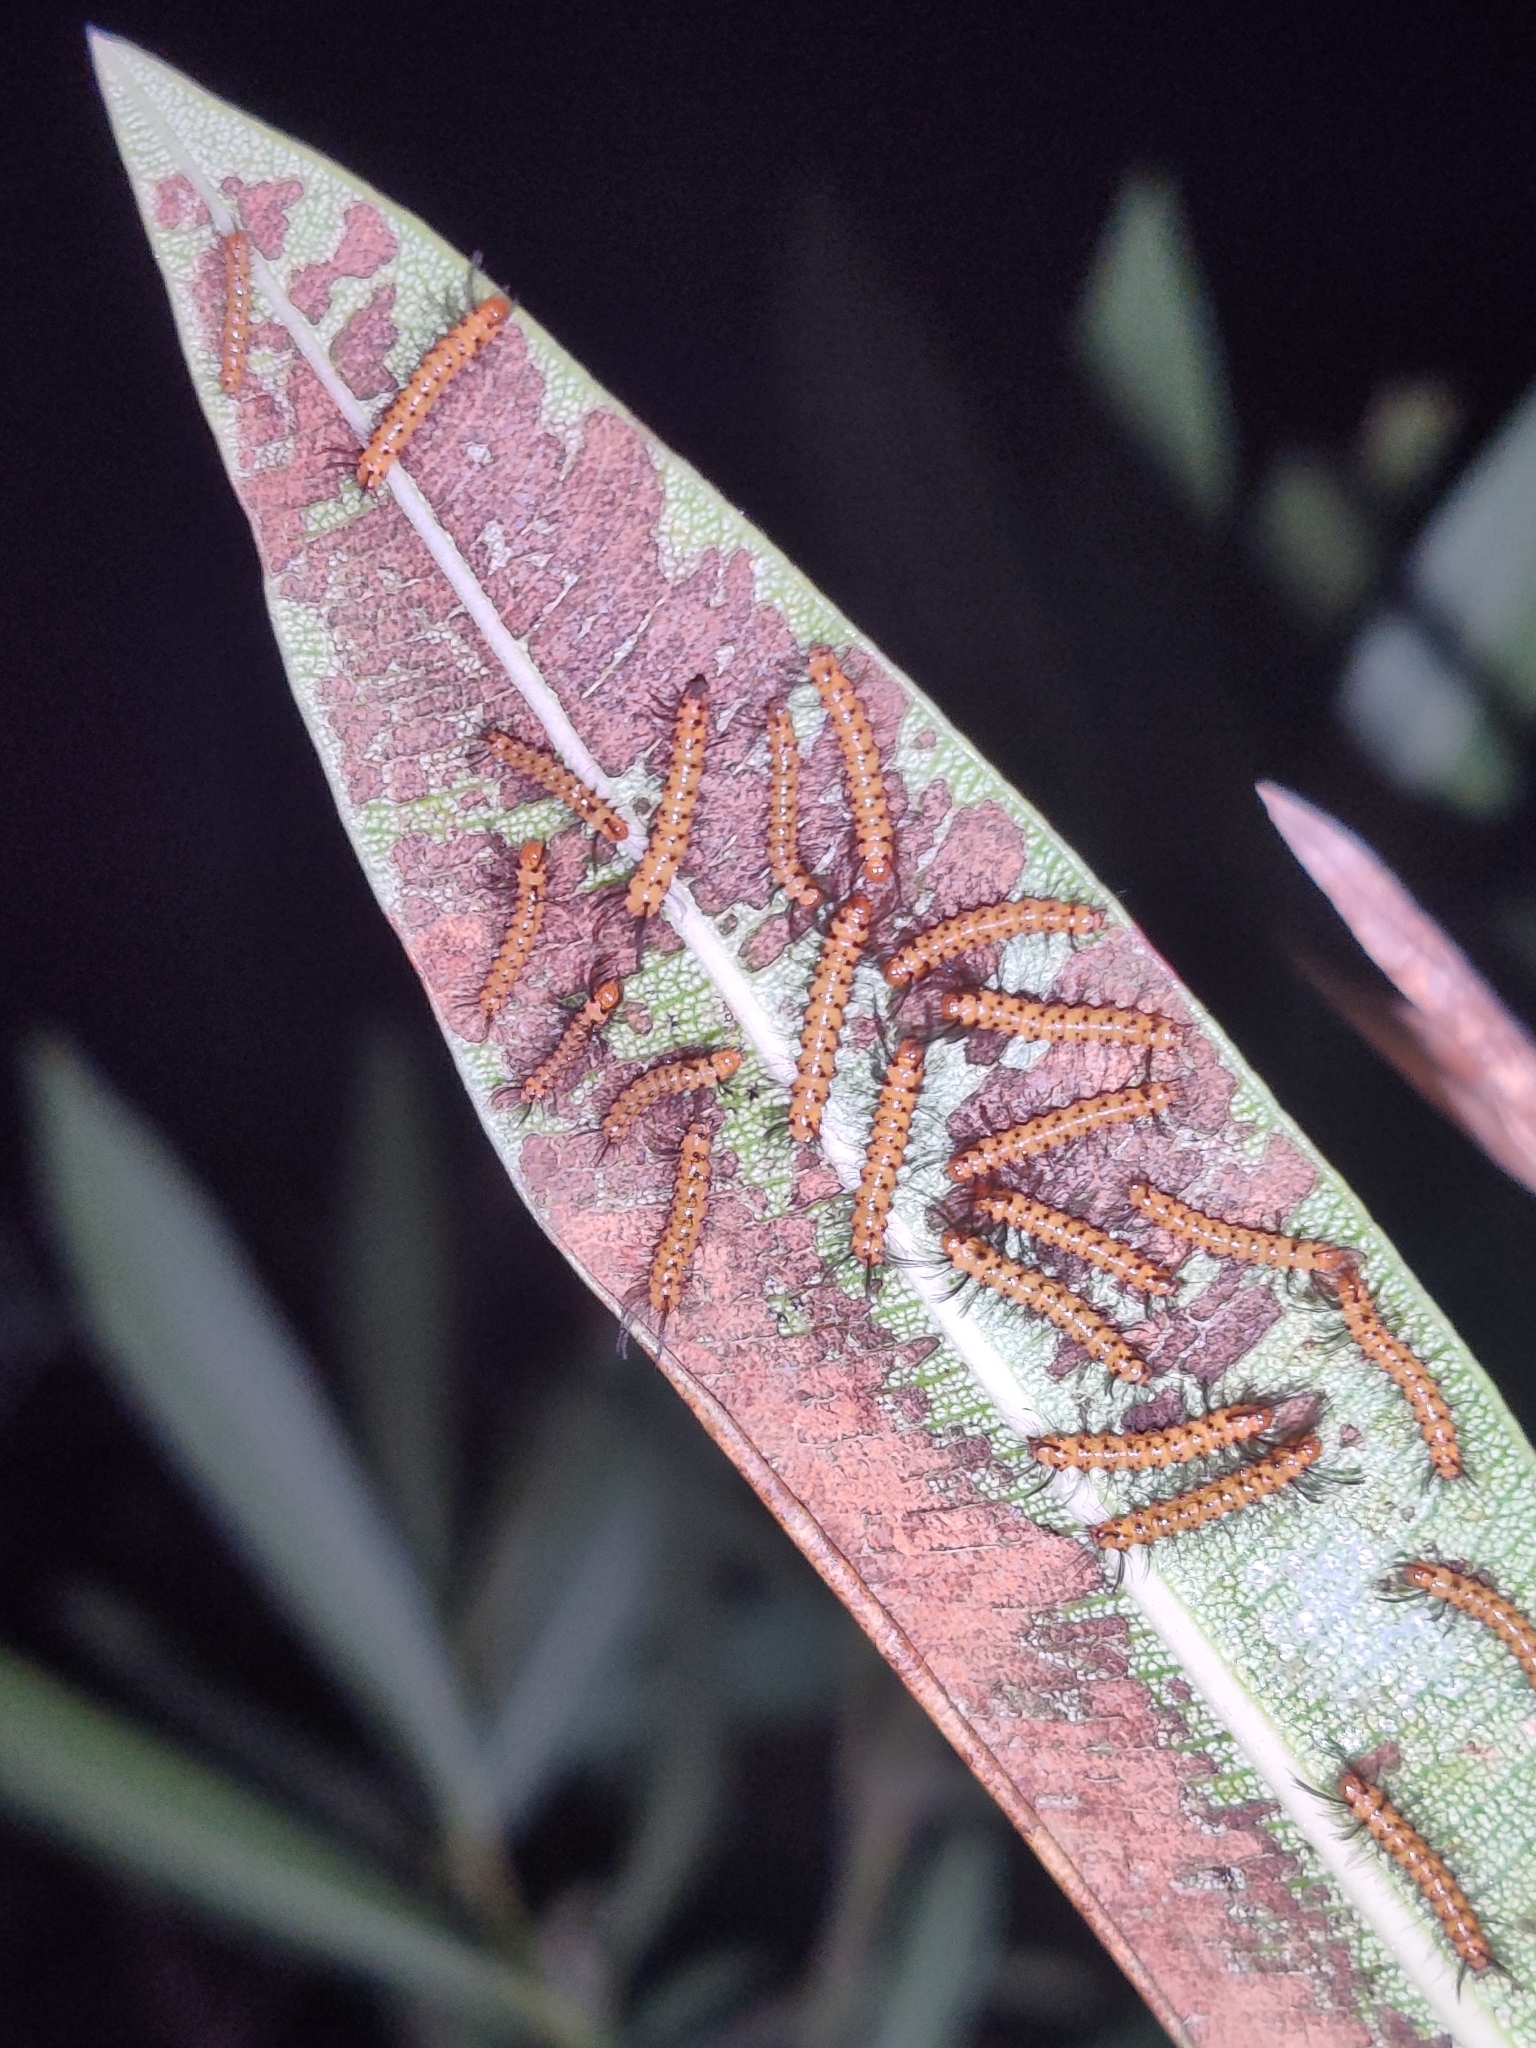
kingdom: Animalia
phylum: Arthropoda
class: Insecta
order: Lepidoptera
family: Erebidae
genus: Syntomeida
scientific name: Syntomeida epilais
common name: Polka-dot wasp moth
